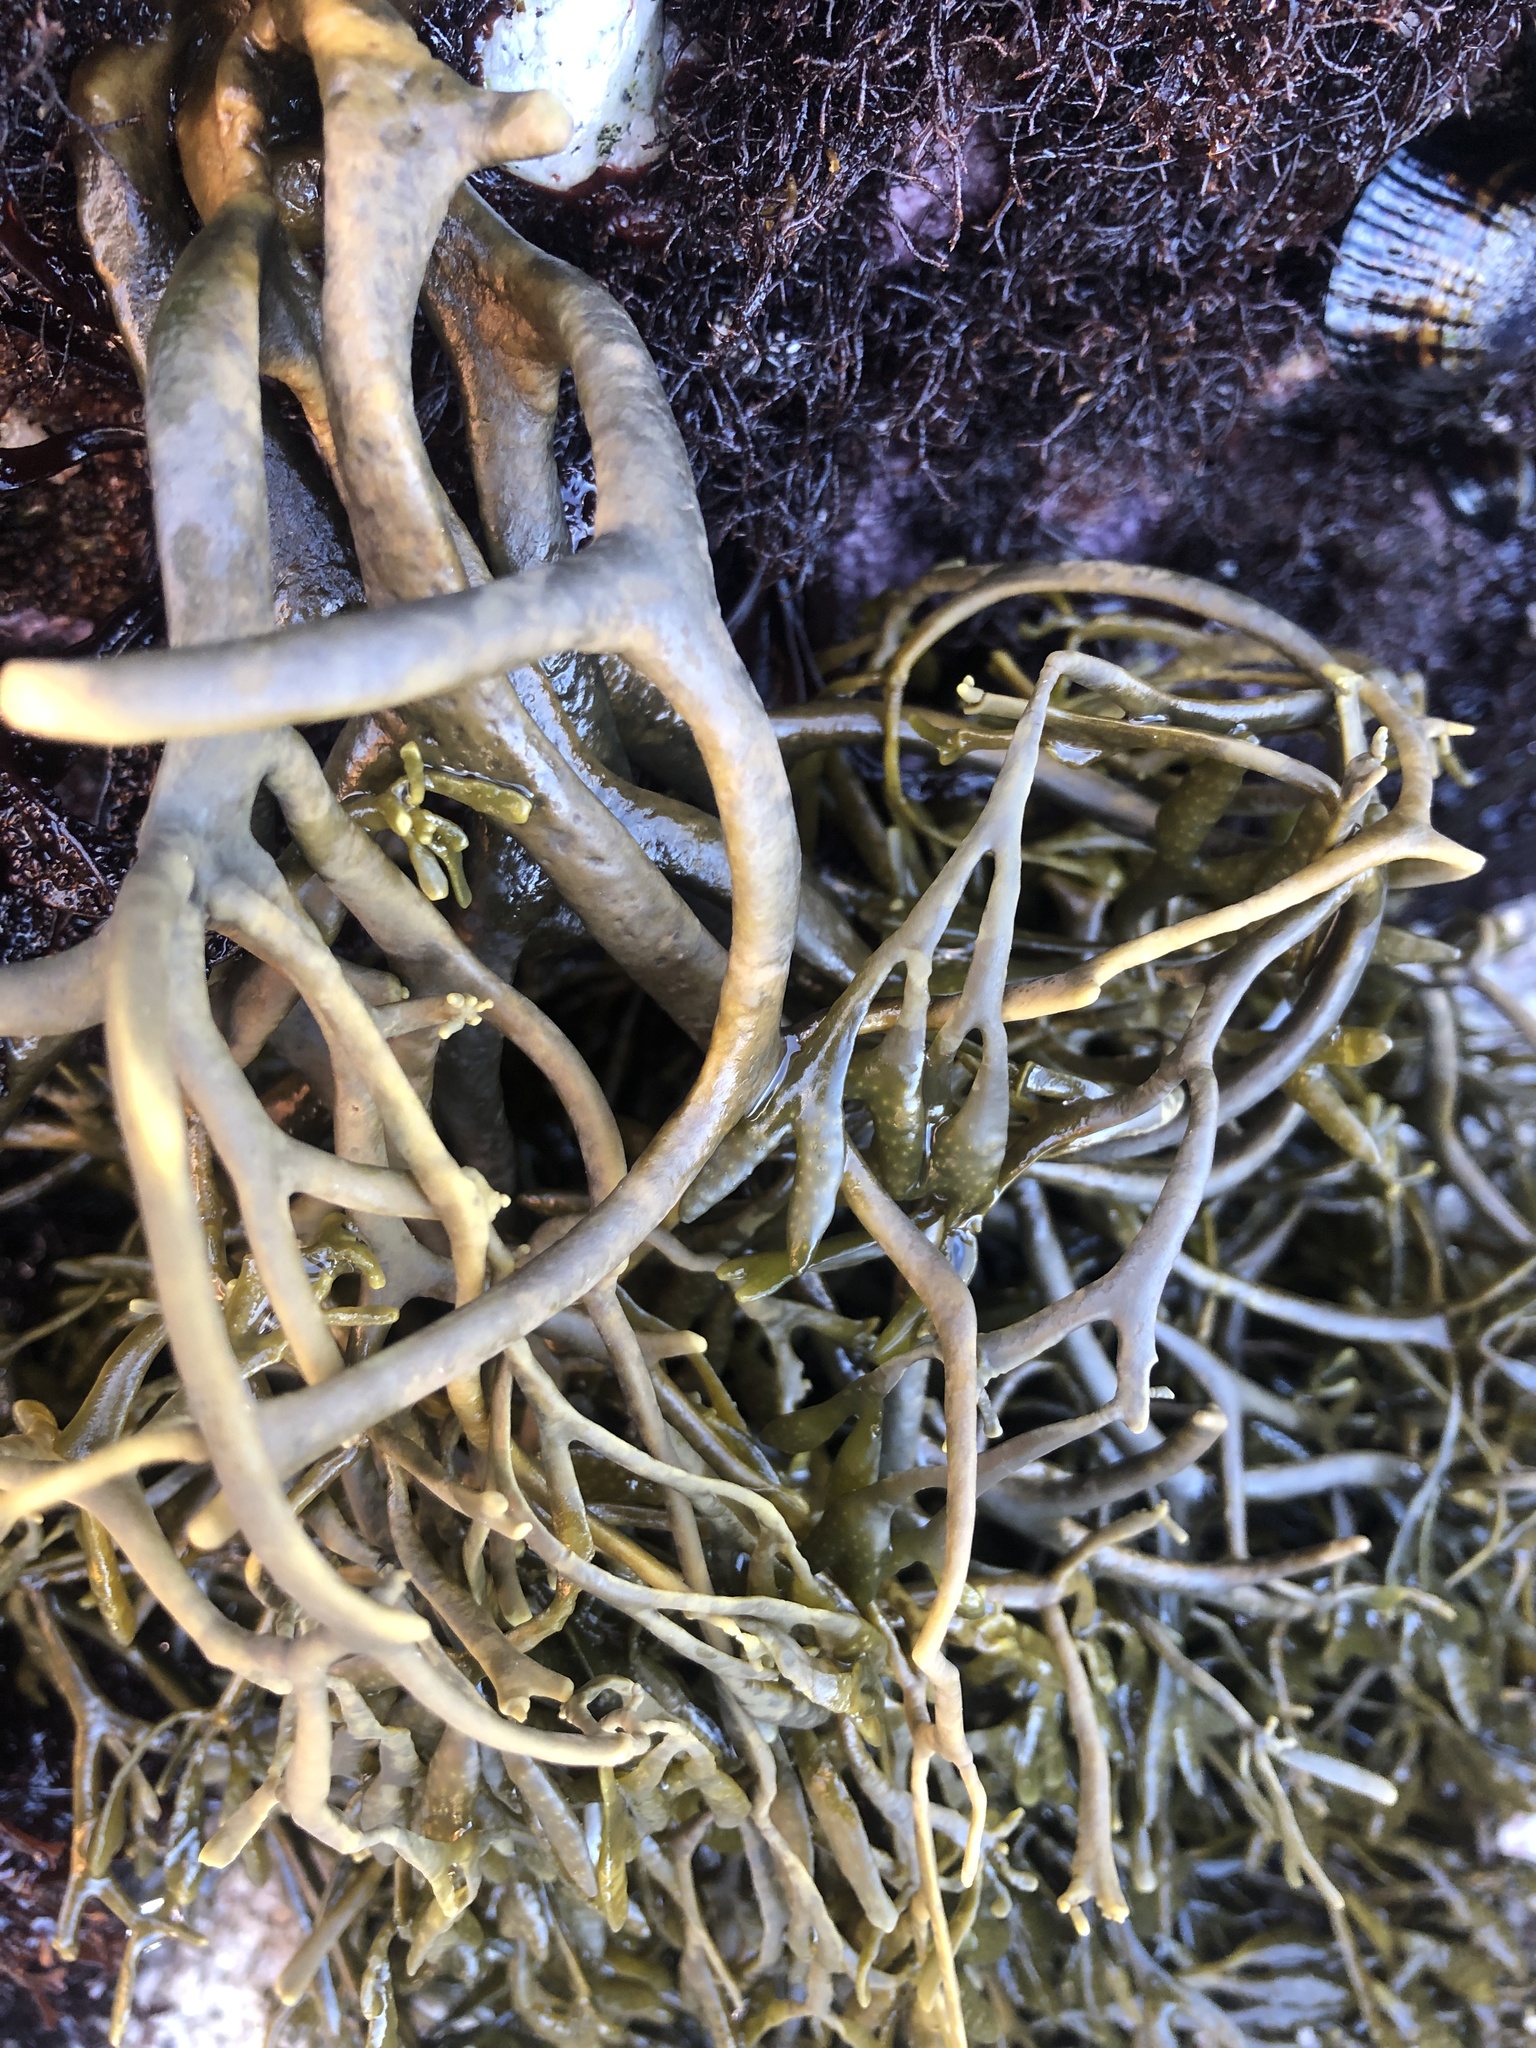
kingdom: Chromista
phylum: Ochrophyta
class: Phaeophyceae
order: Fucales
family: Fucaceae
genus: Silvetia
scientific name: Silvetia
